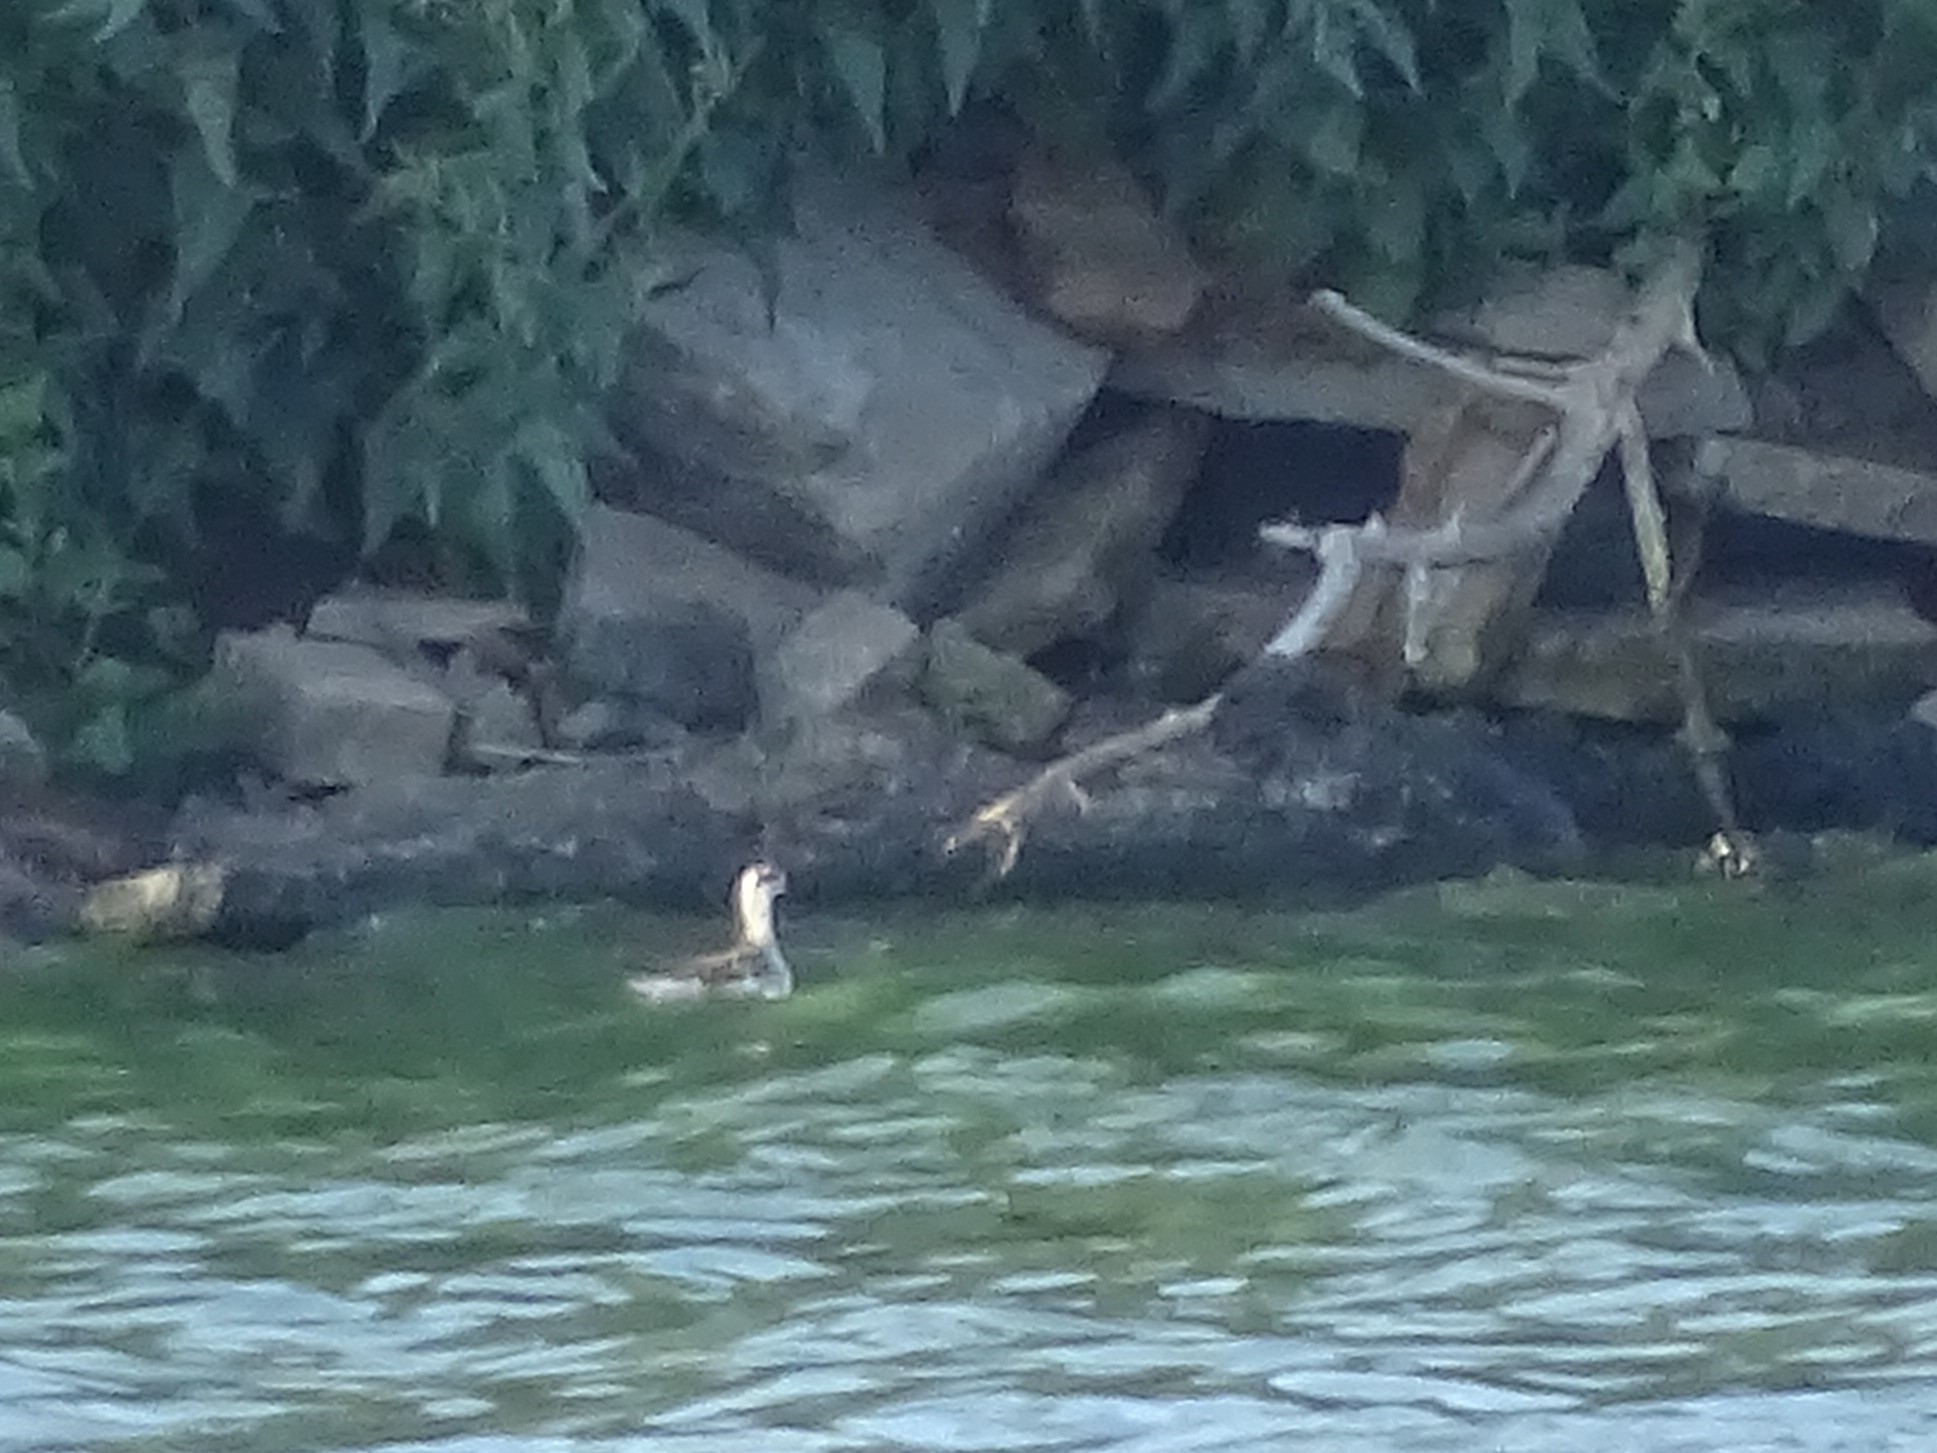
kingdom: Animalia
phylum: Chordata
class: Aves
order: Charadriiformes
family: Scolopacidae
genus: Phalaropus
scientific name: Phalaropus lobatus
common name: Red-necked phalarope
